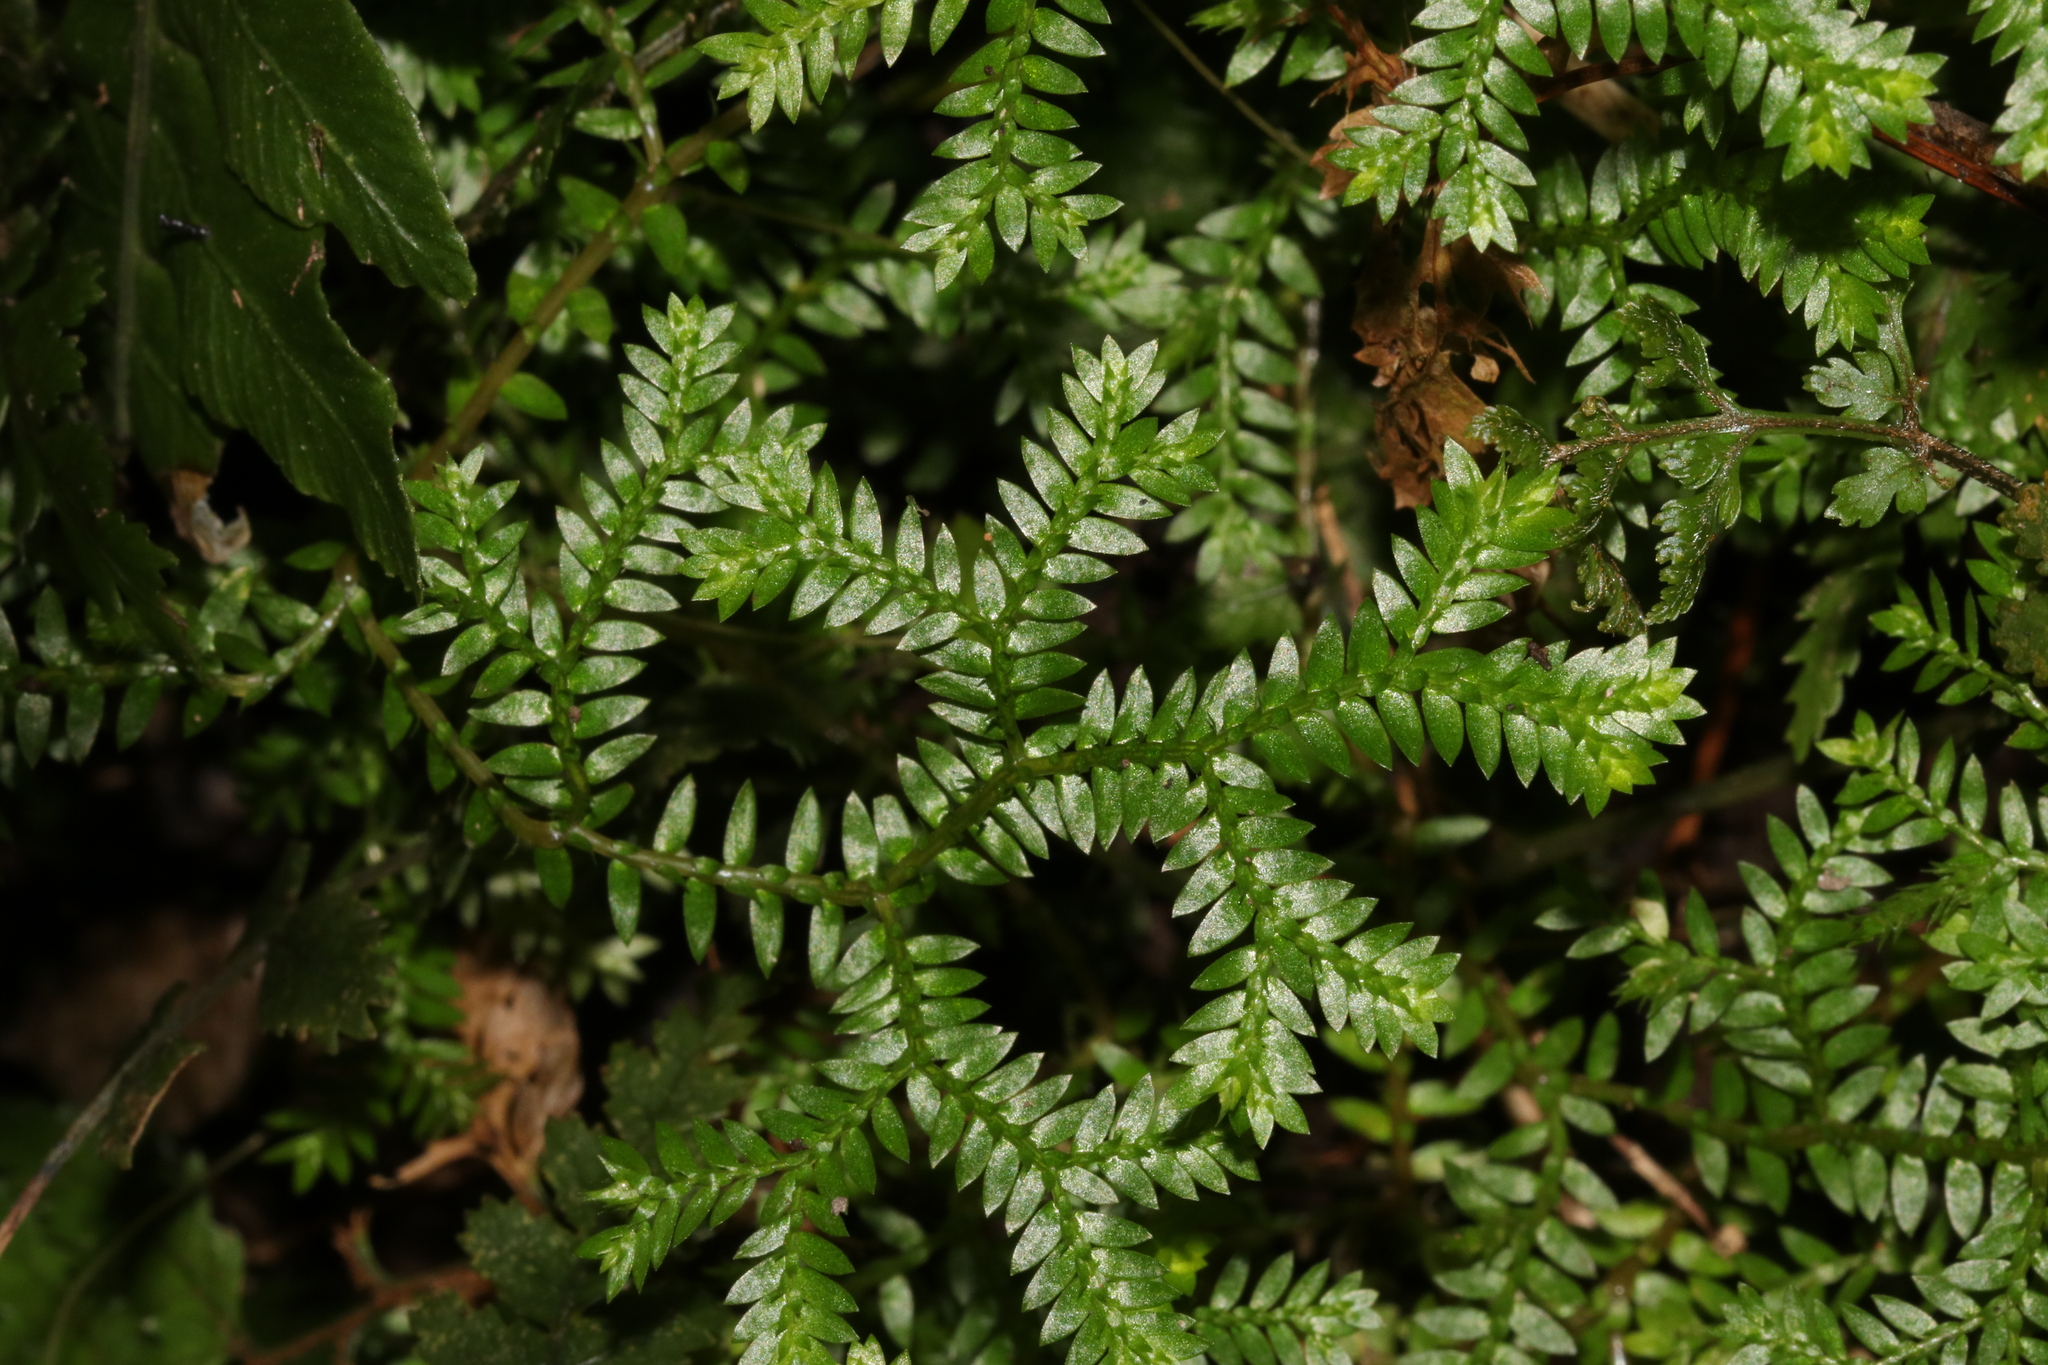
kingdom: Plantae
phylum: Tracheophyta
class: Lycopodiopsida
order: Selaginellales
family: Selaginellaceae
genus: Selaginella
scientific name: Selaginella kraussiana
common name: Krauss' spikemoss
